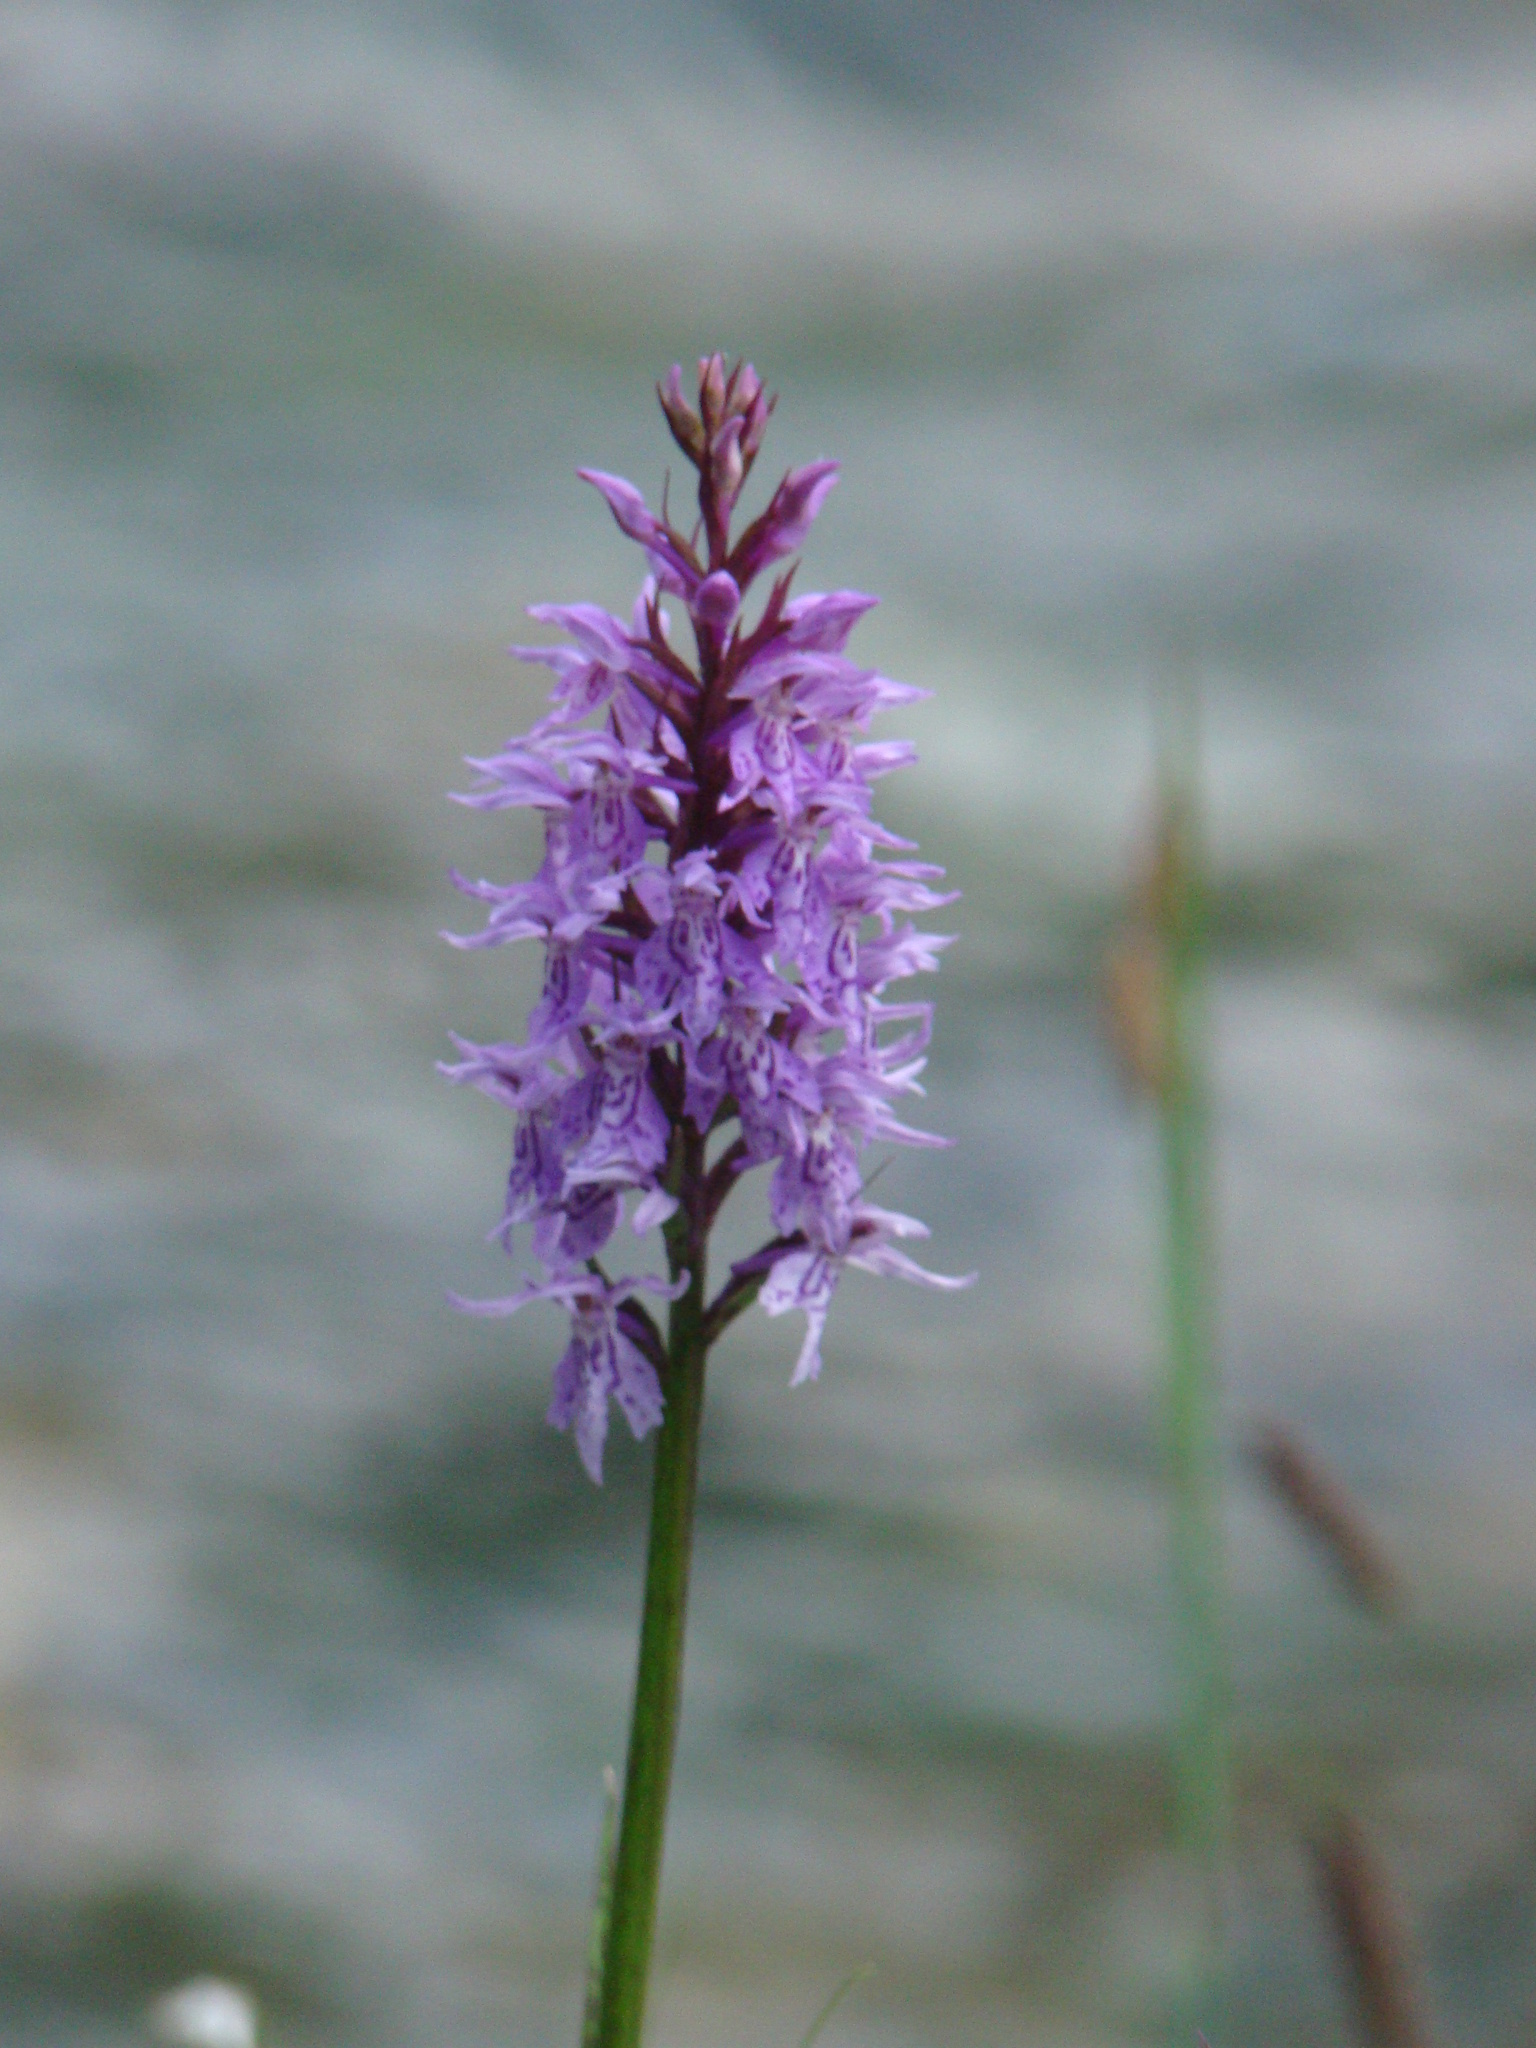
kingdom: Plantae
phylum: Tracheophyta
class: Liliopsida
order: Asparagales
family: Orchidaceae
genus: Dactylorhiza
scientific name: Dactylorhiza maculata
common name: Heath spotted-orchid
